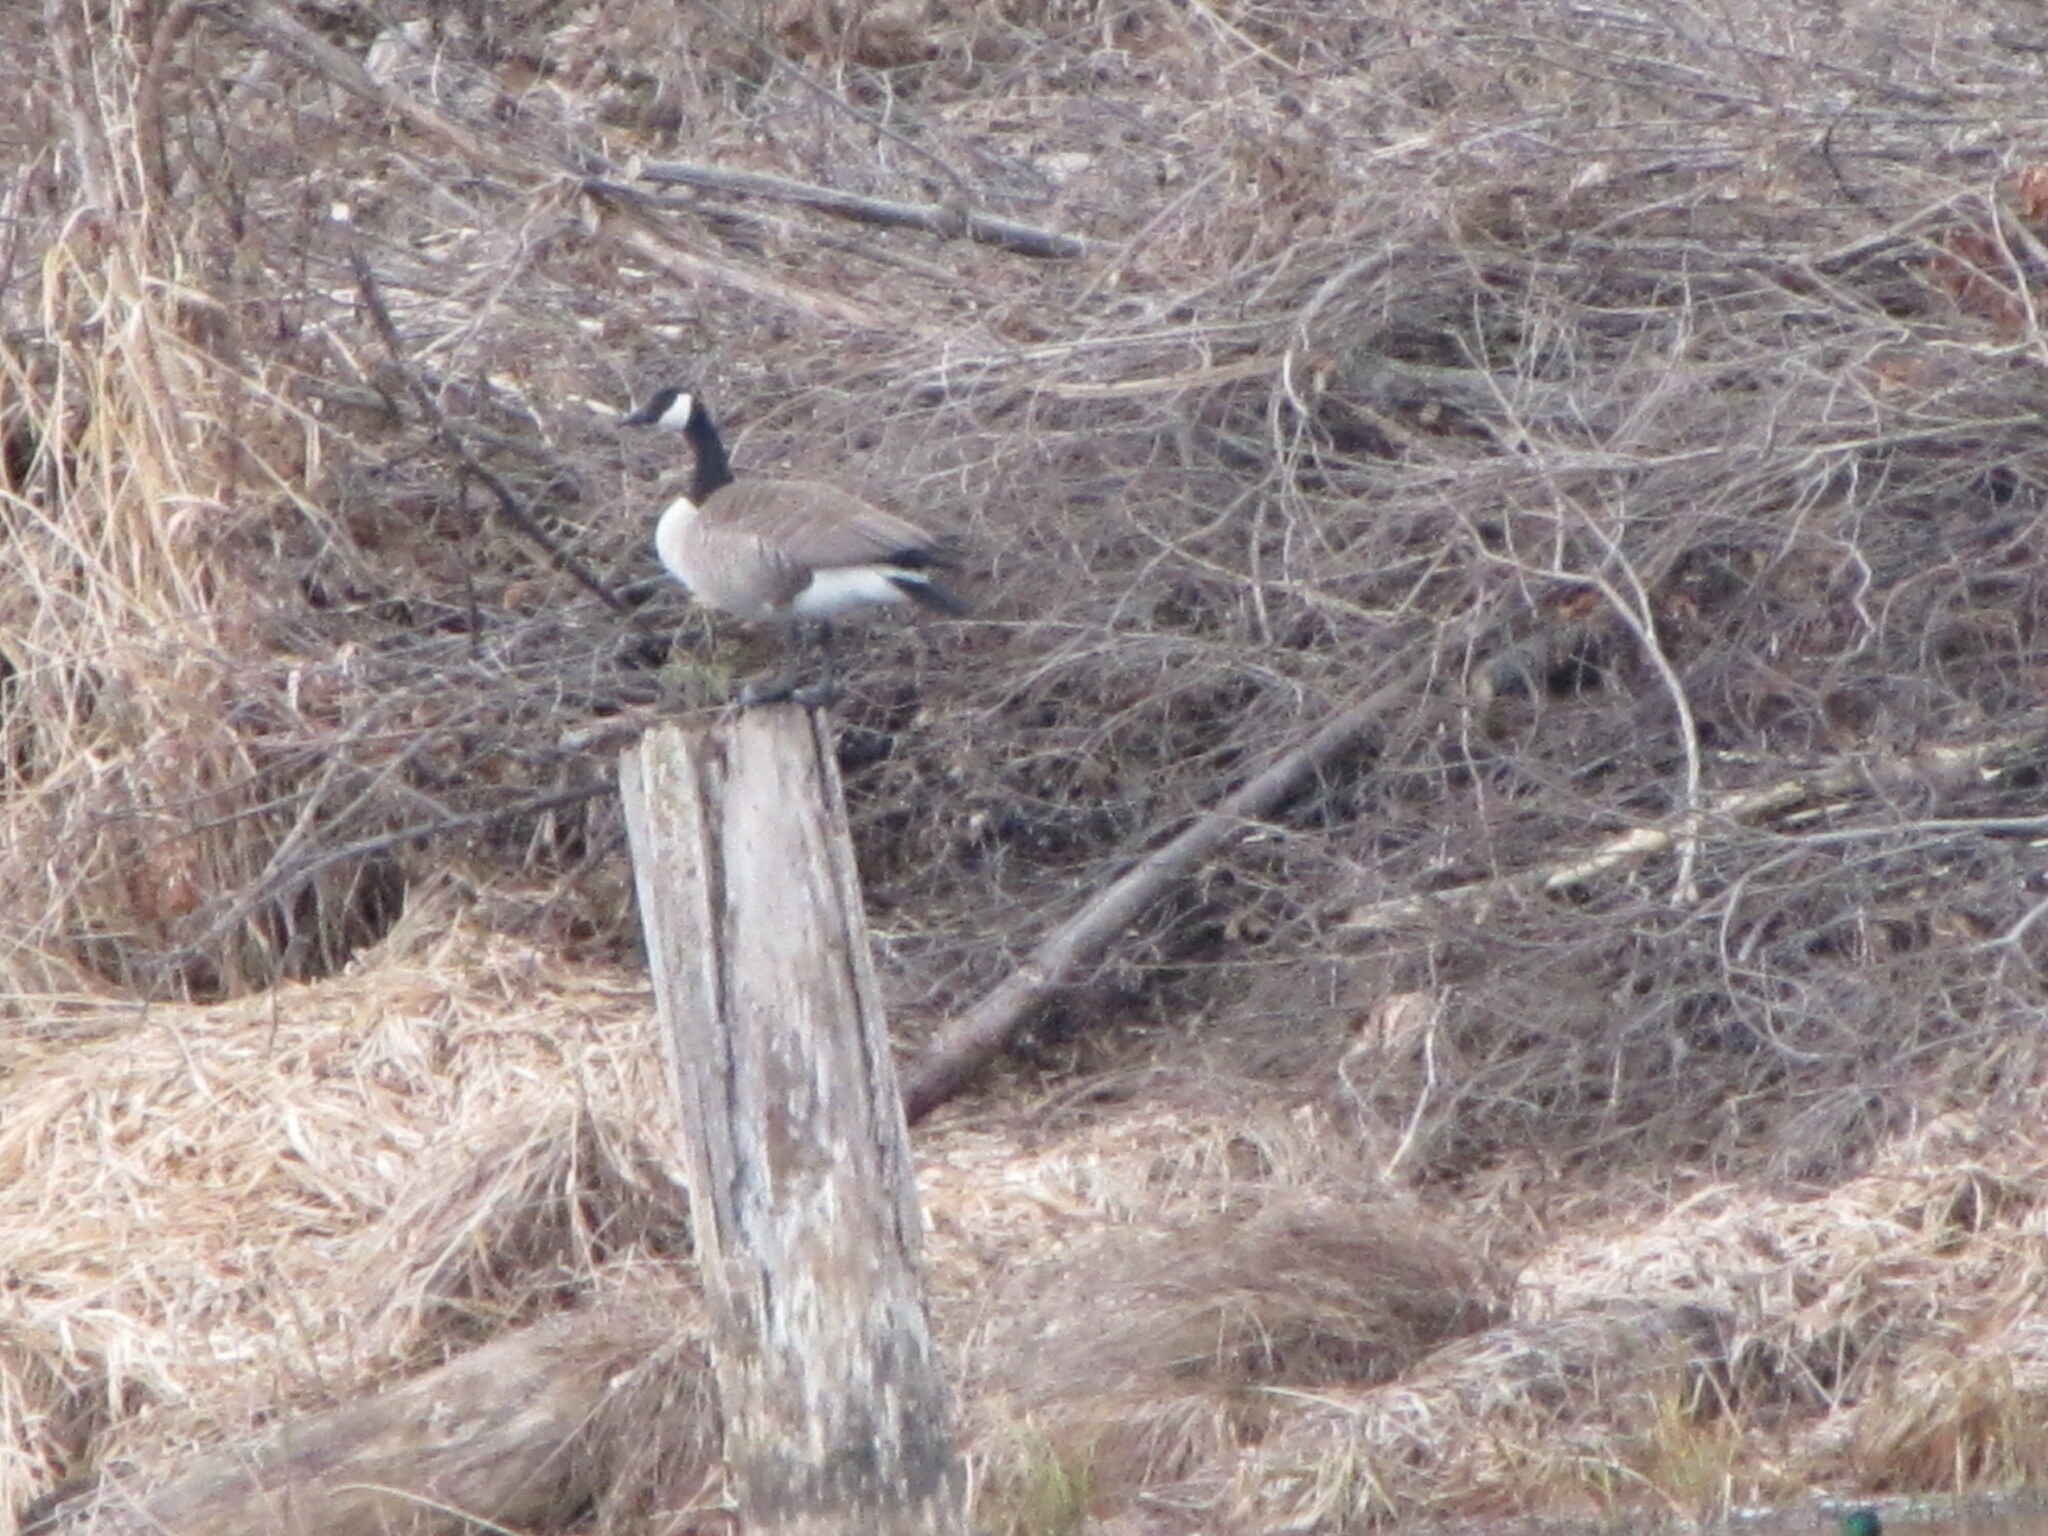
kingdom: Animalia
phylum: Chordata
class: Aves
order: Anseriformes
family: Anatidae
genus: Branta
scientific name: Branta canadensis
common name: Canada goose
